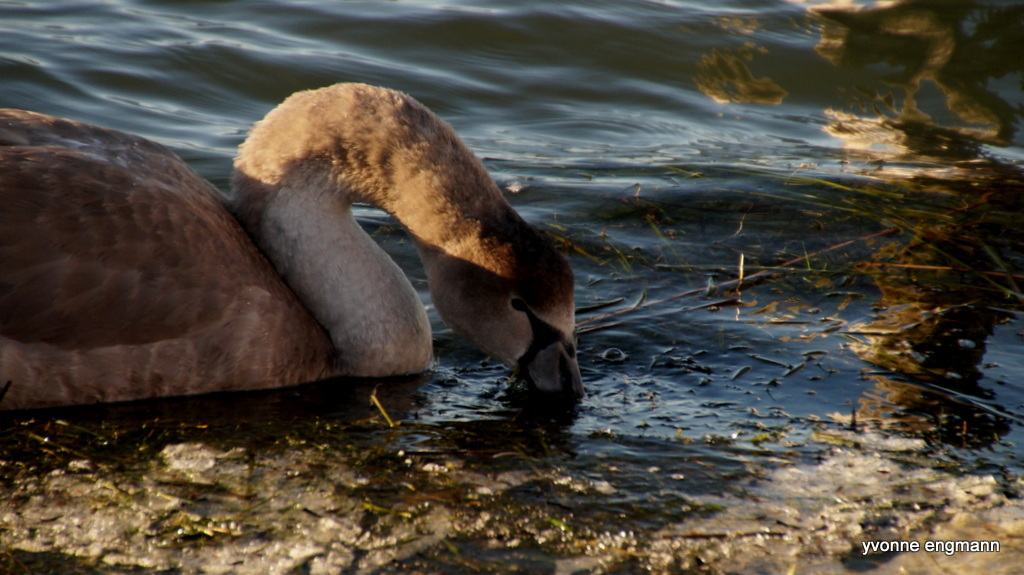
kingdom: Animalia
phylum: Chordata
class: Aves
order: Anseriformes
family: Anatidae
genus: Cygnus
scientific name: Cygnus olor
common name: Mute swan
